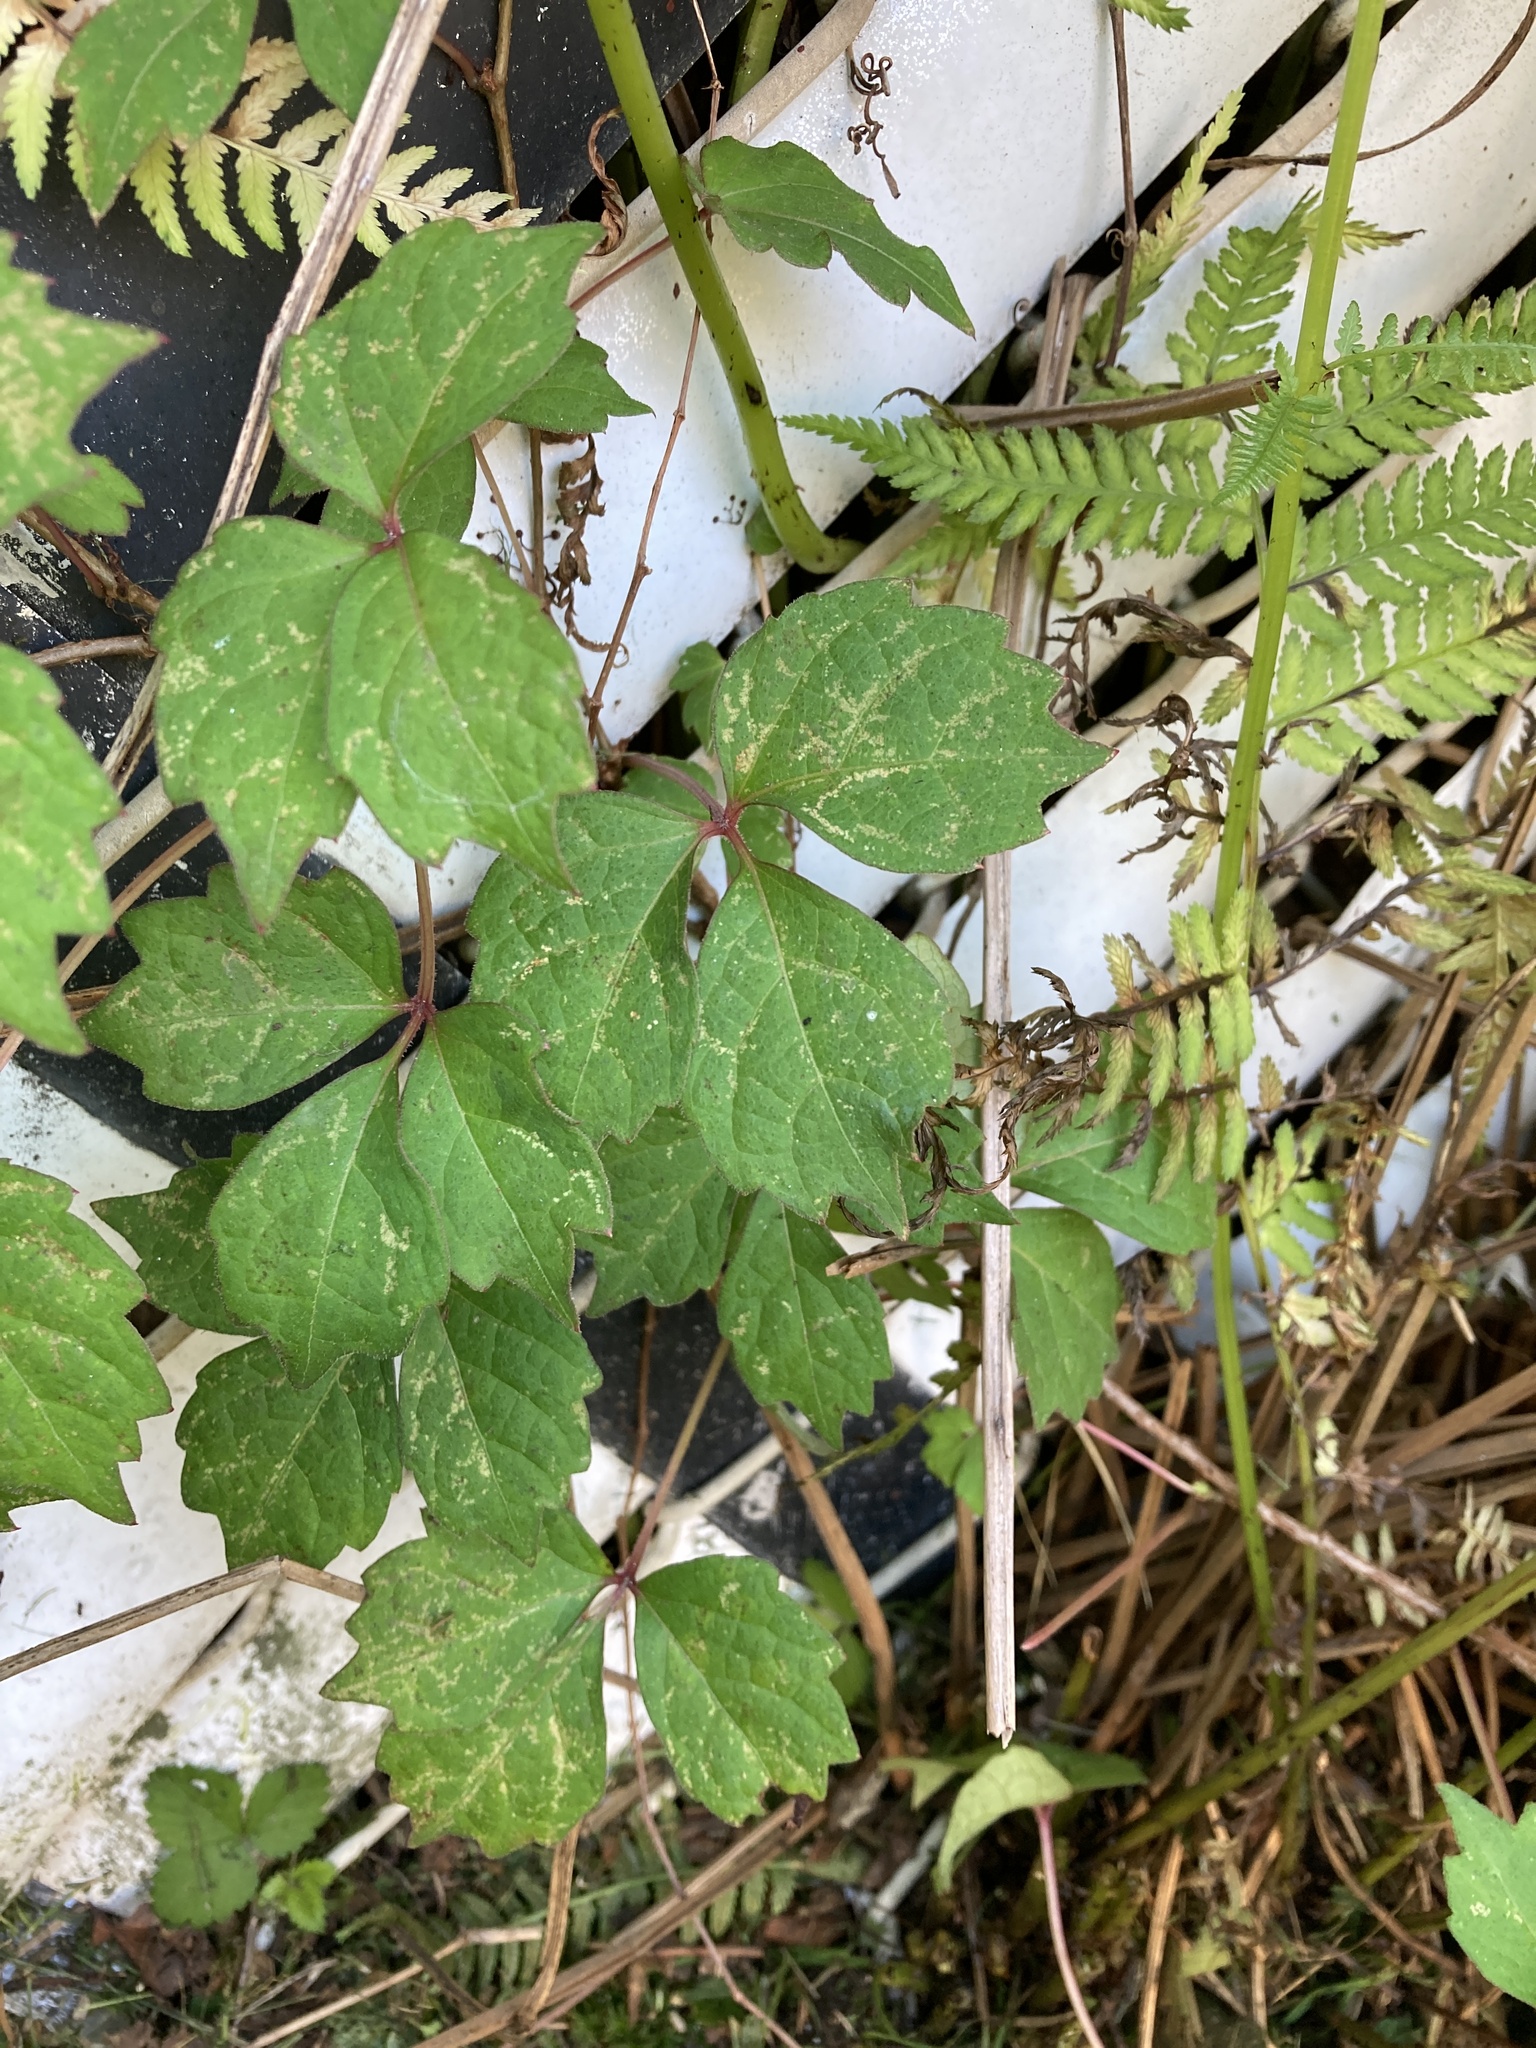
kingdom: Plantae
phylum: Tracheophyta
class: Magnoliopsida
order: Vitales
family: Vitaceae
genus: Parthenocissus
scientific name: Parthenocissus tricuspidata
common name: Boston ivy
